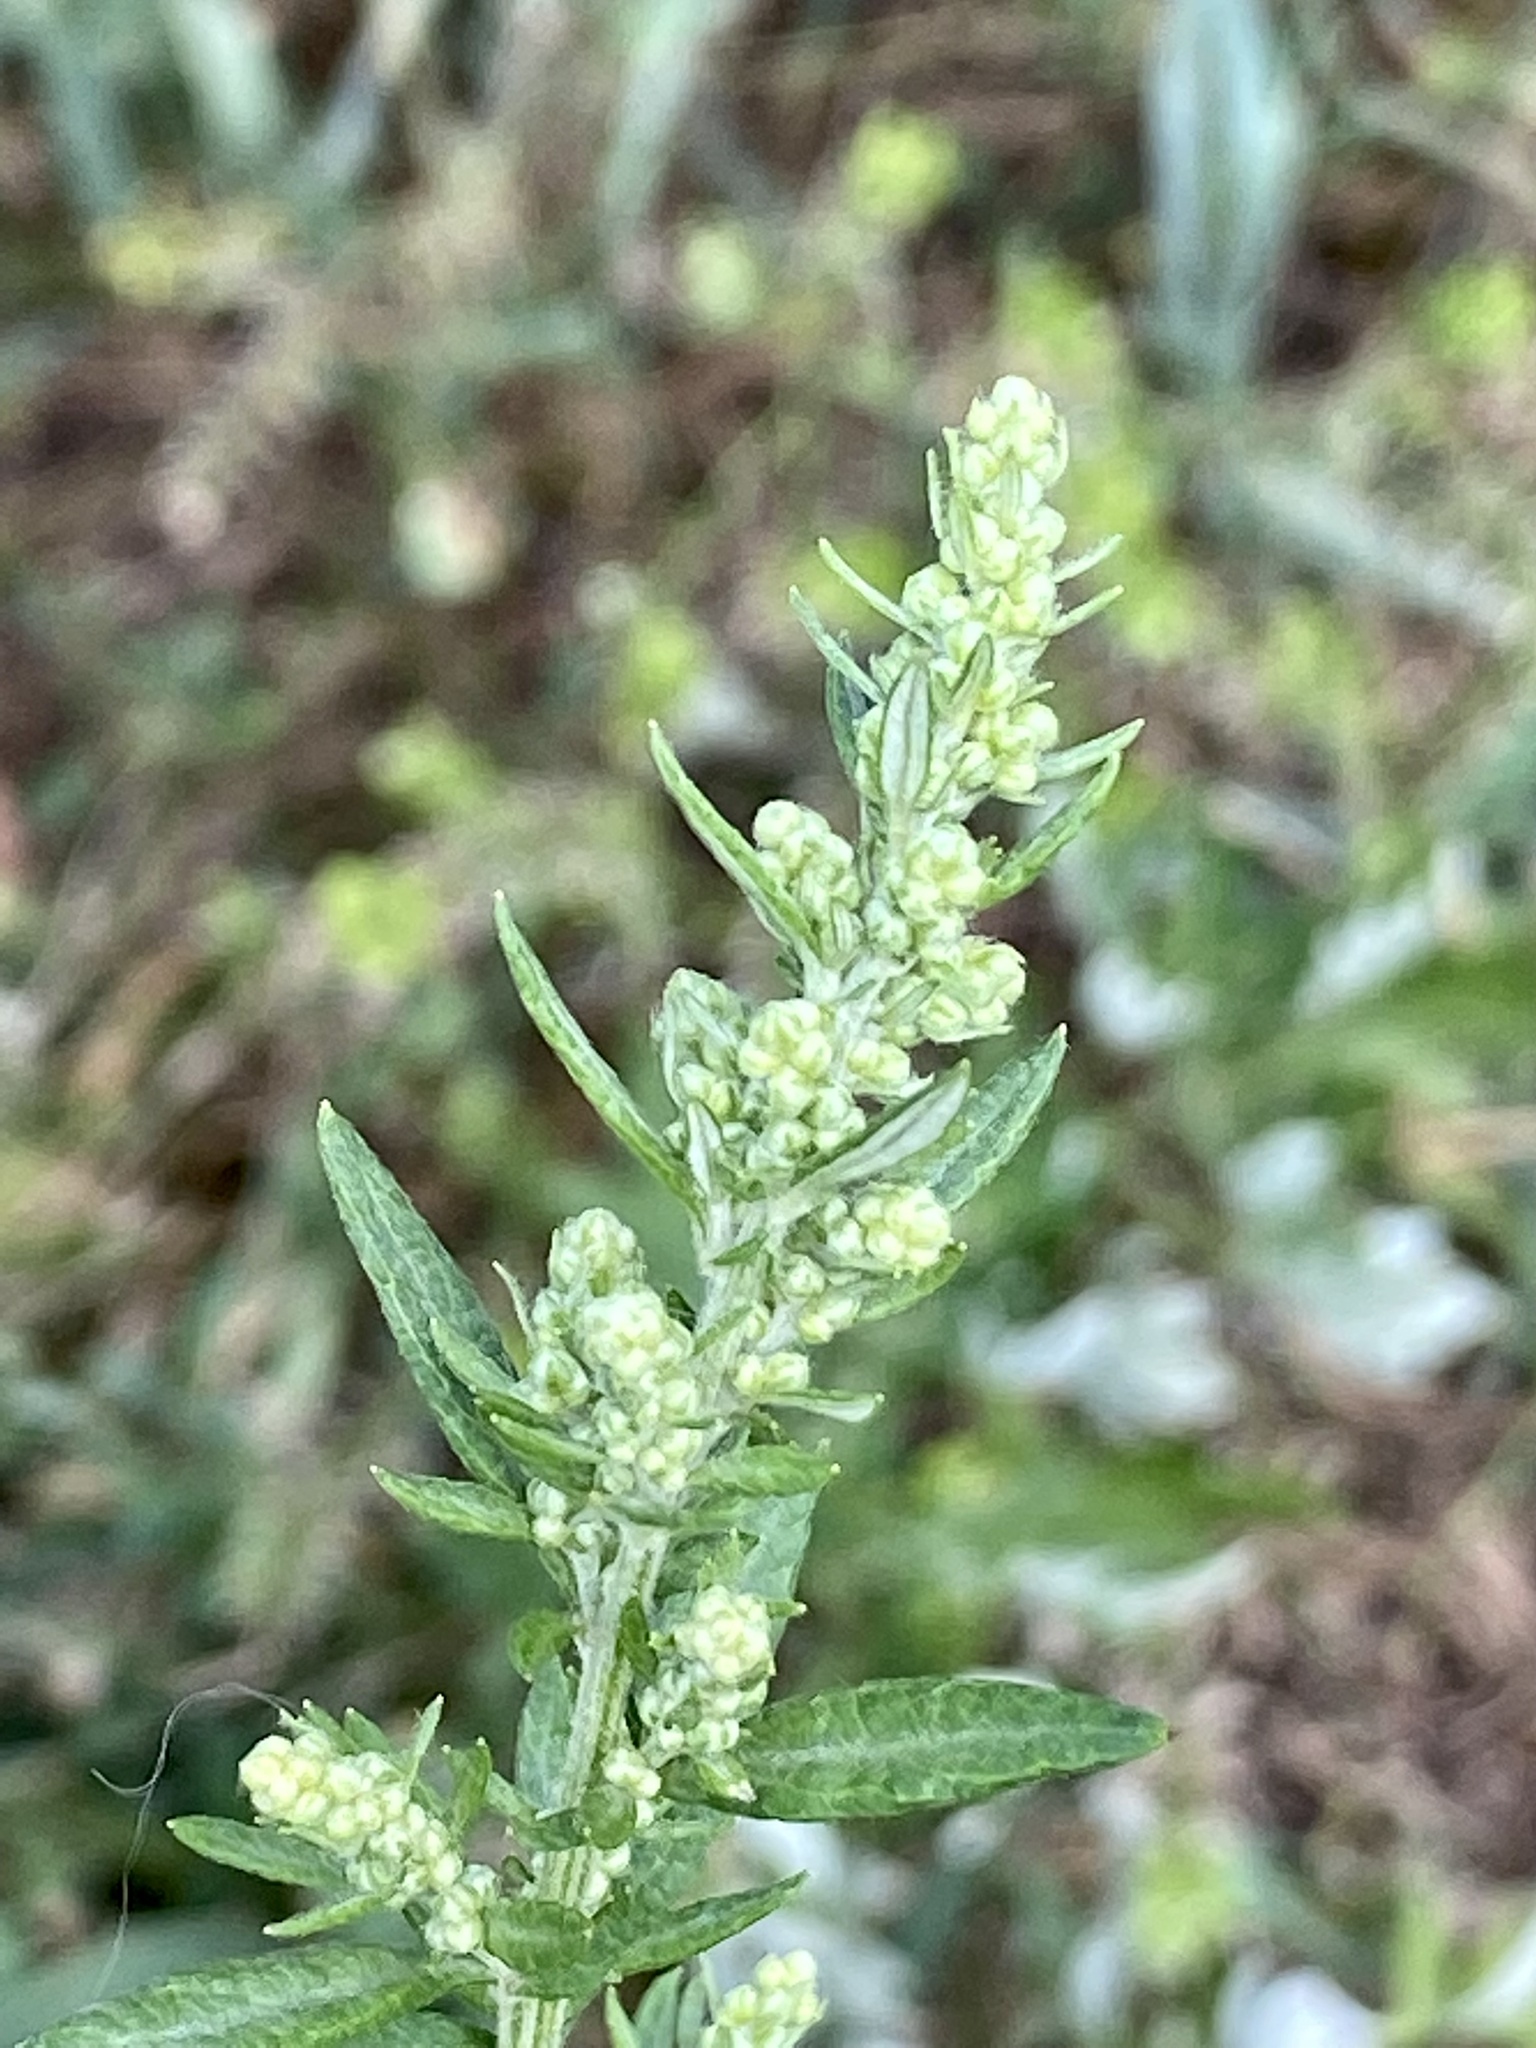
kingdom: Plantae
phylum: Tracheophyta
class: Magnoliopsida
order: Asterales
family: Asteraceae
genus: Artemisia
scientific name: Artemisia vulgaris
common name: Mugwort
